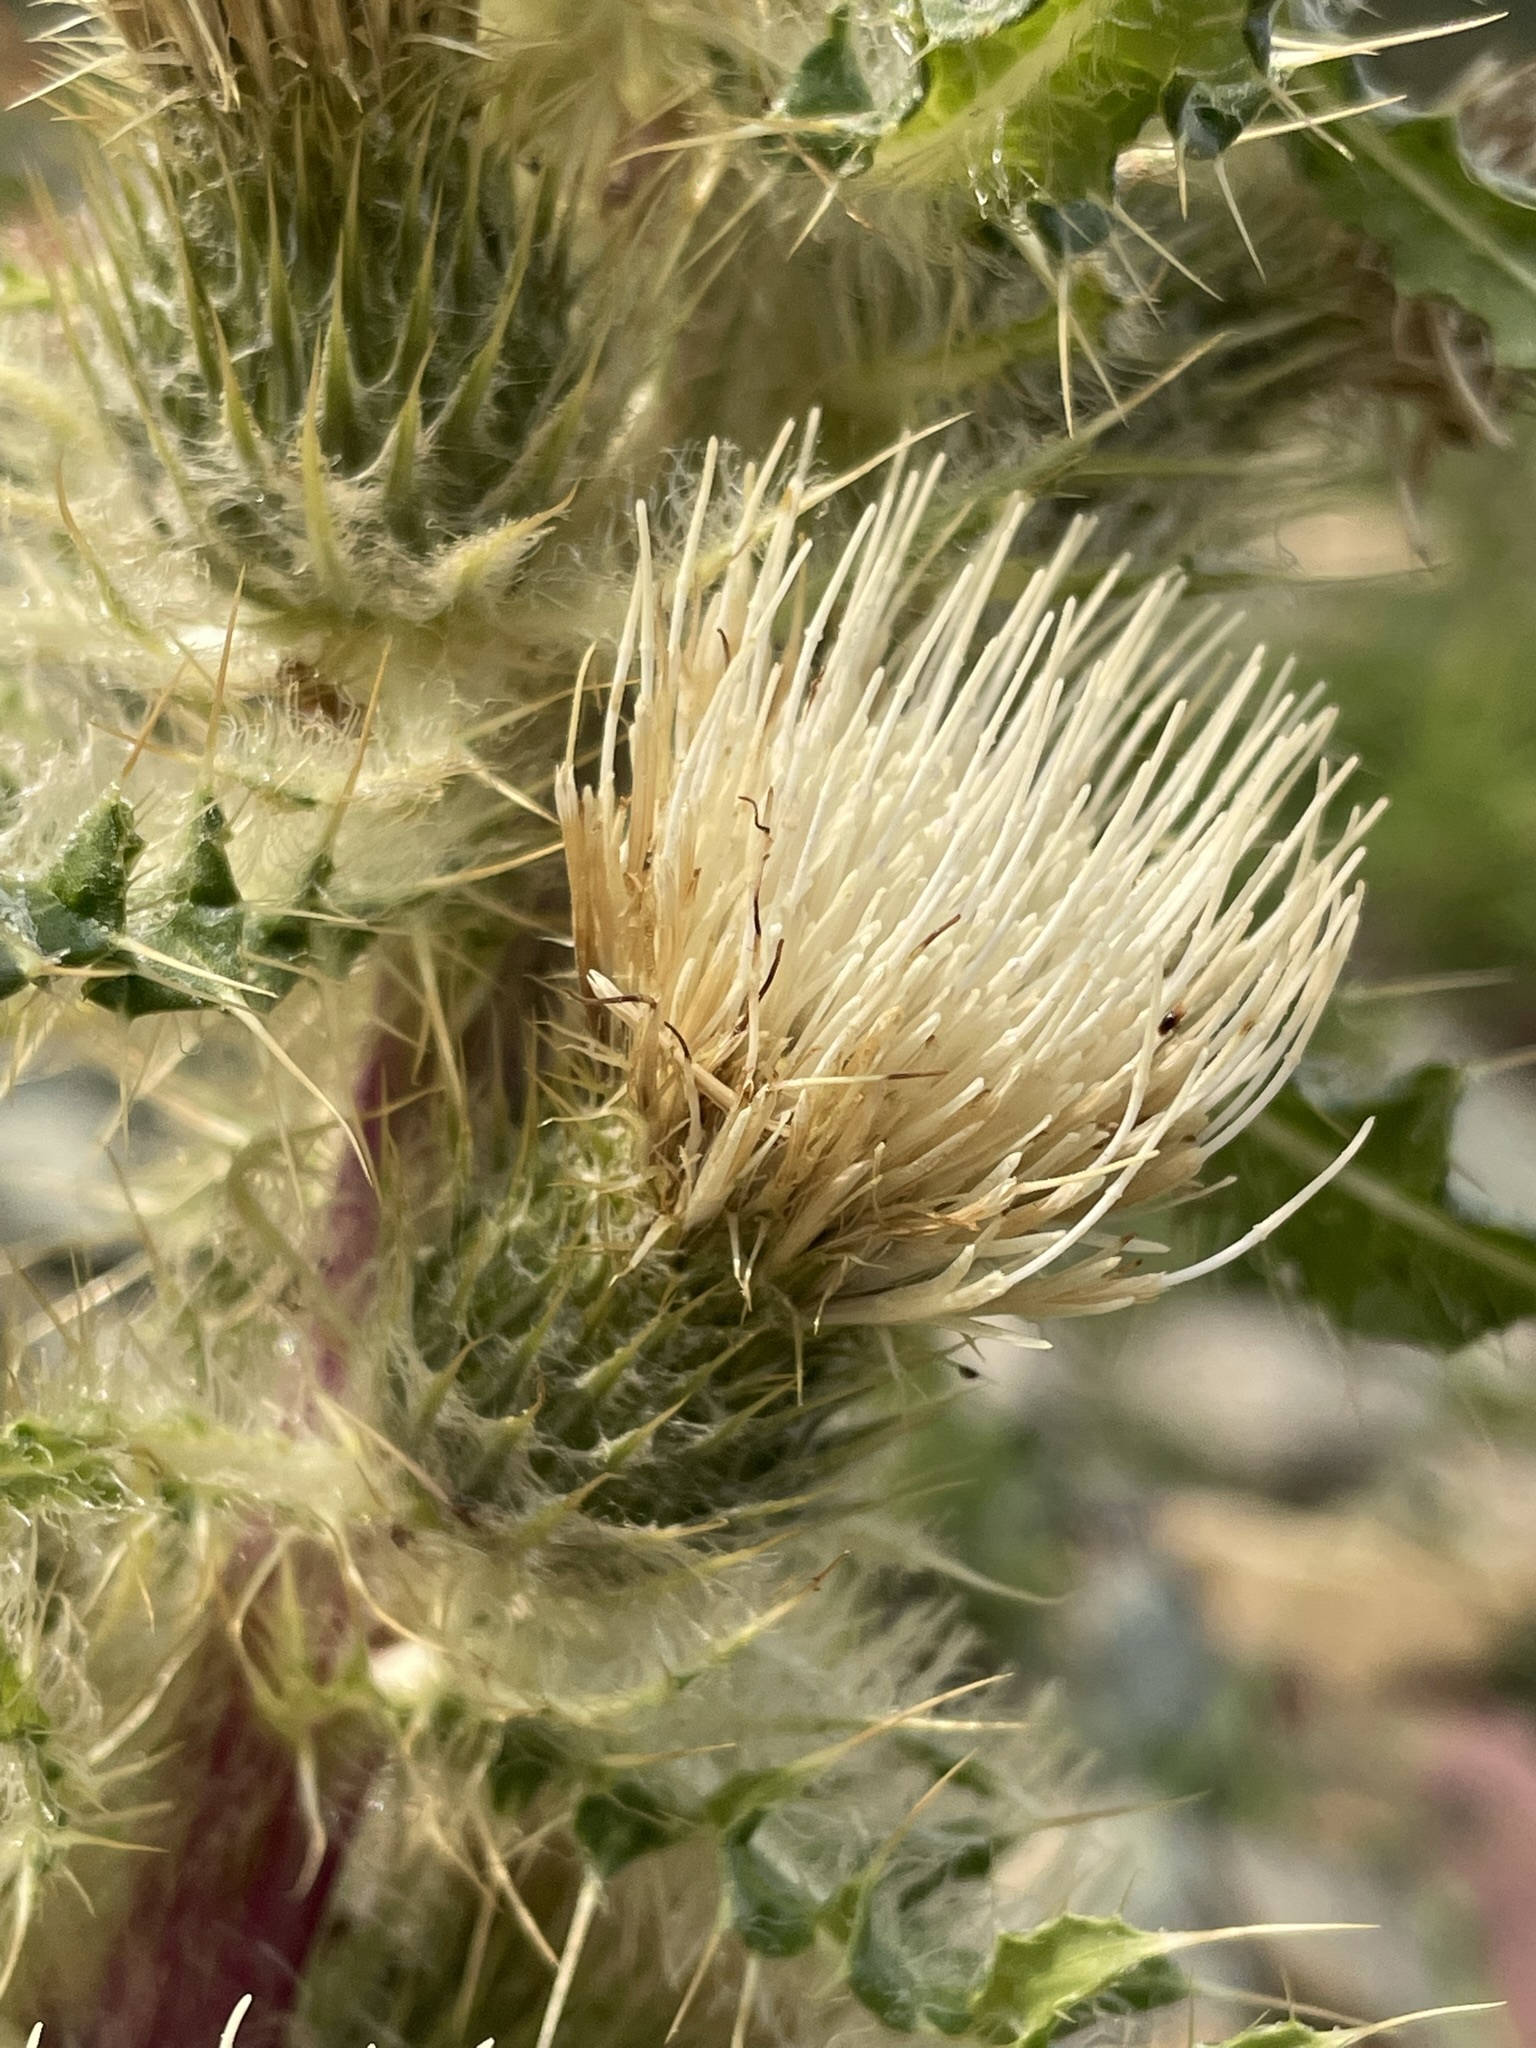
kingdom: Plantae
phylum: Tracheophyta
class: Magnoliopsida
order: Asterales
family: Asteraceae
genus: Cirsium
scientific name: Cirsium hookerianum
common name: Hooker's thistle
